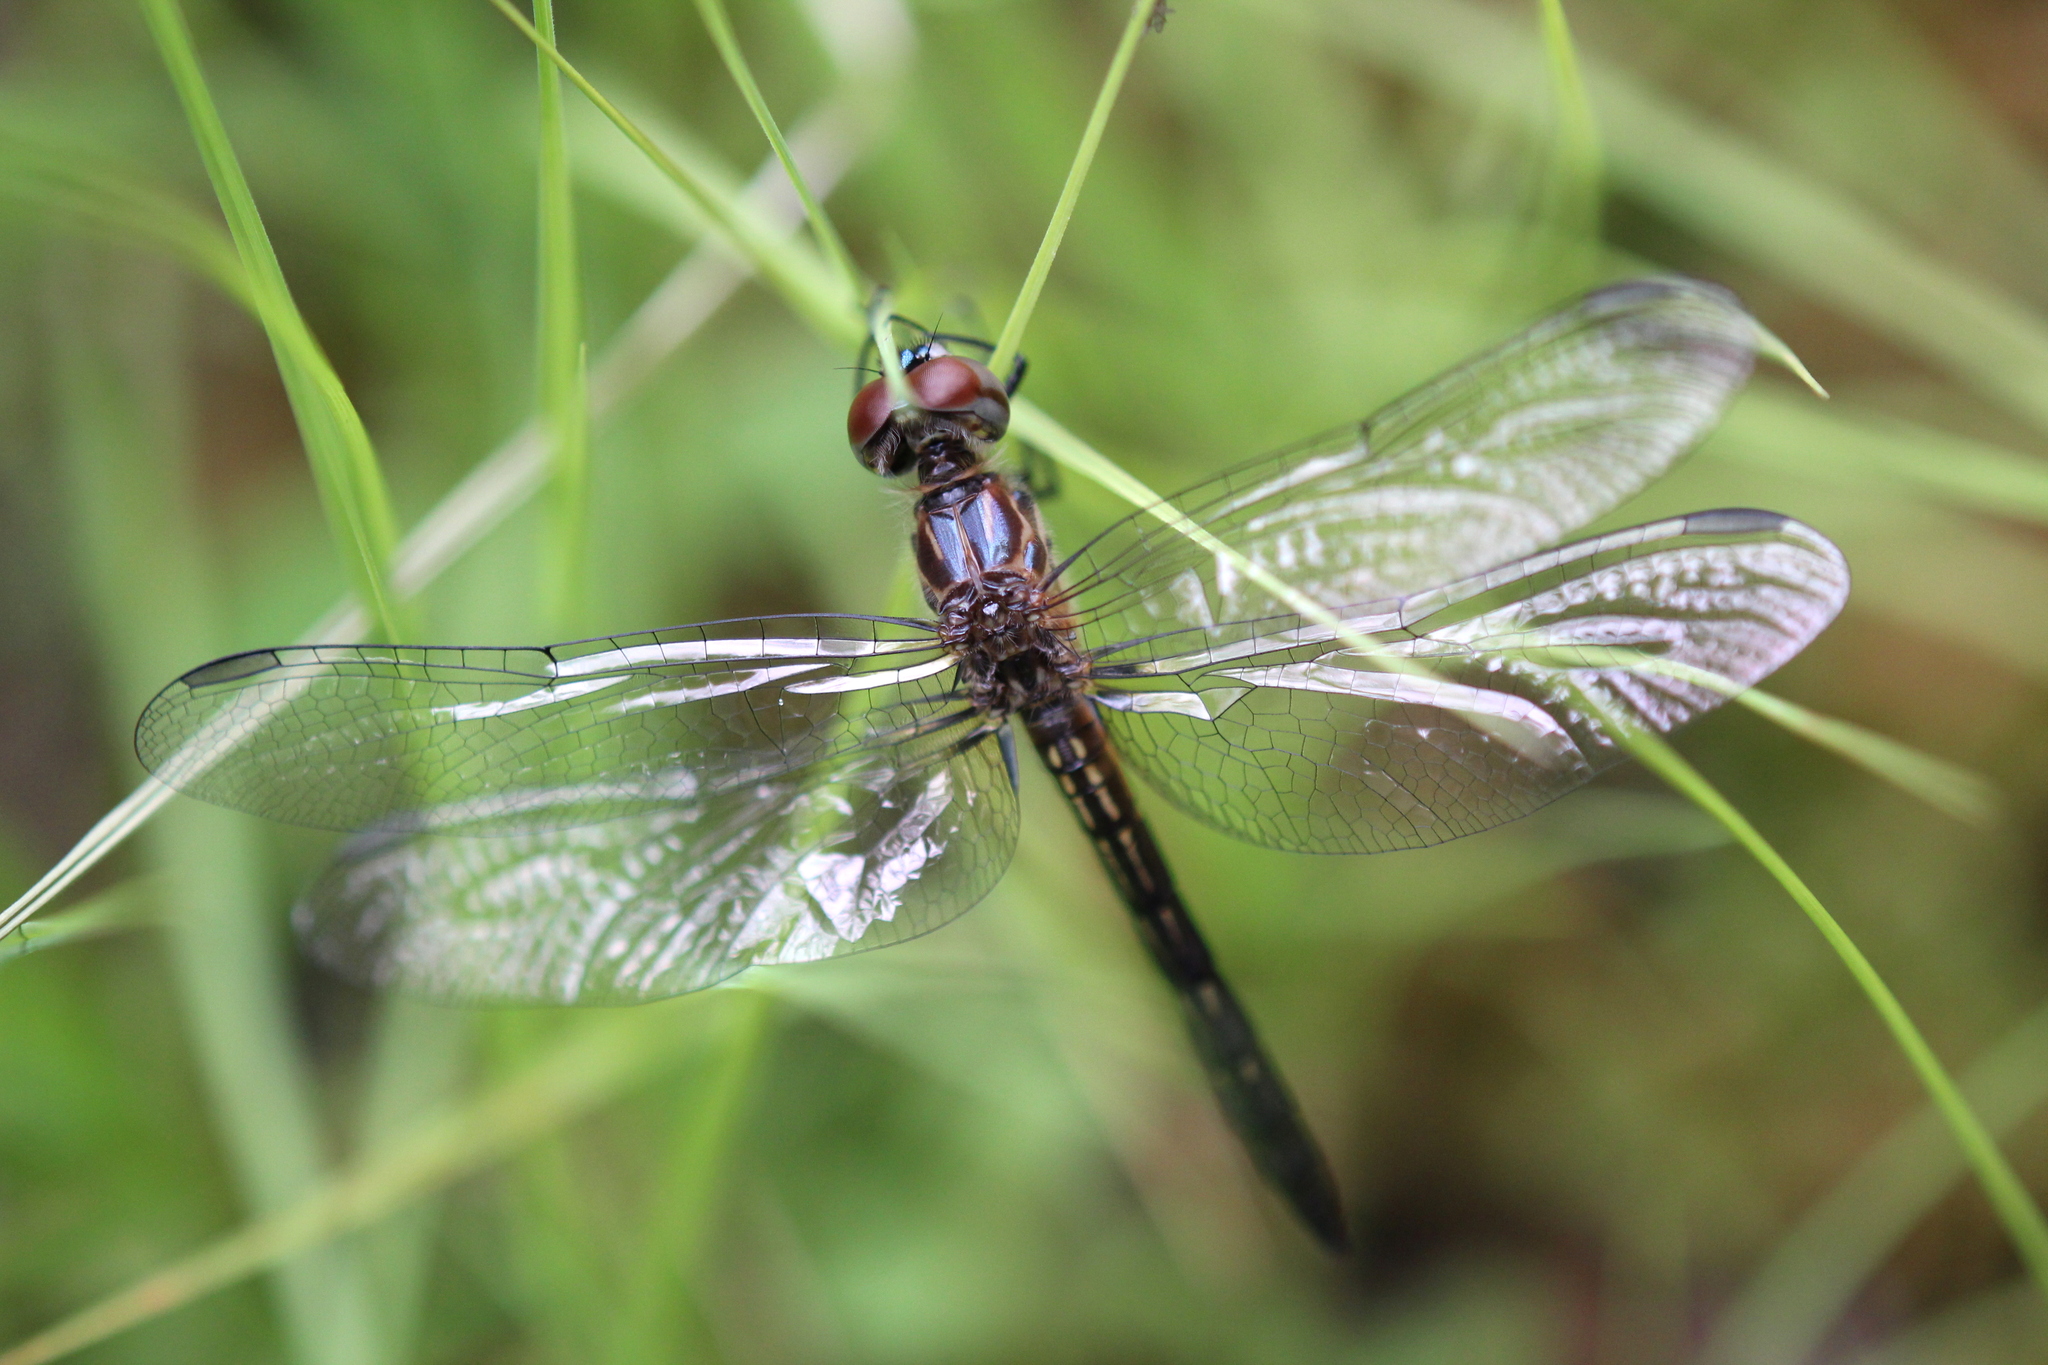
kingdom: Animalia
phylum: Arthropoda
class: Insecta
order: Odonata
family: Libellulidae
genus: Pachydiplax
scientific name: Pachydiplax longipennis
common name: Blue dasher
